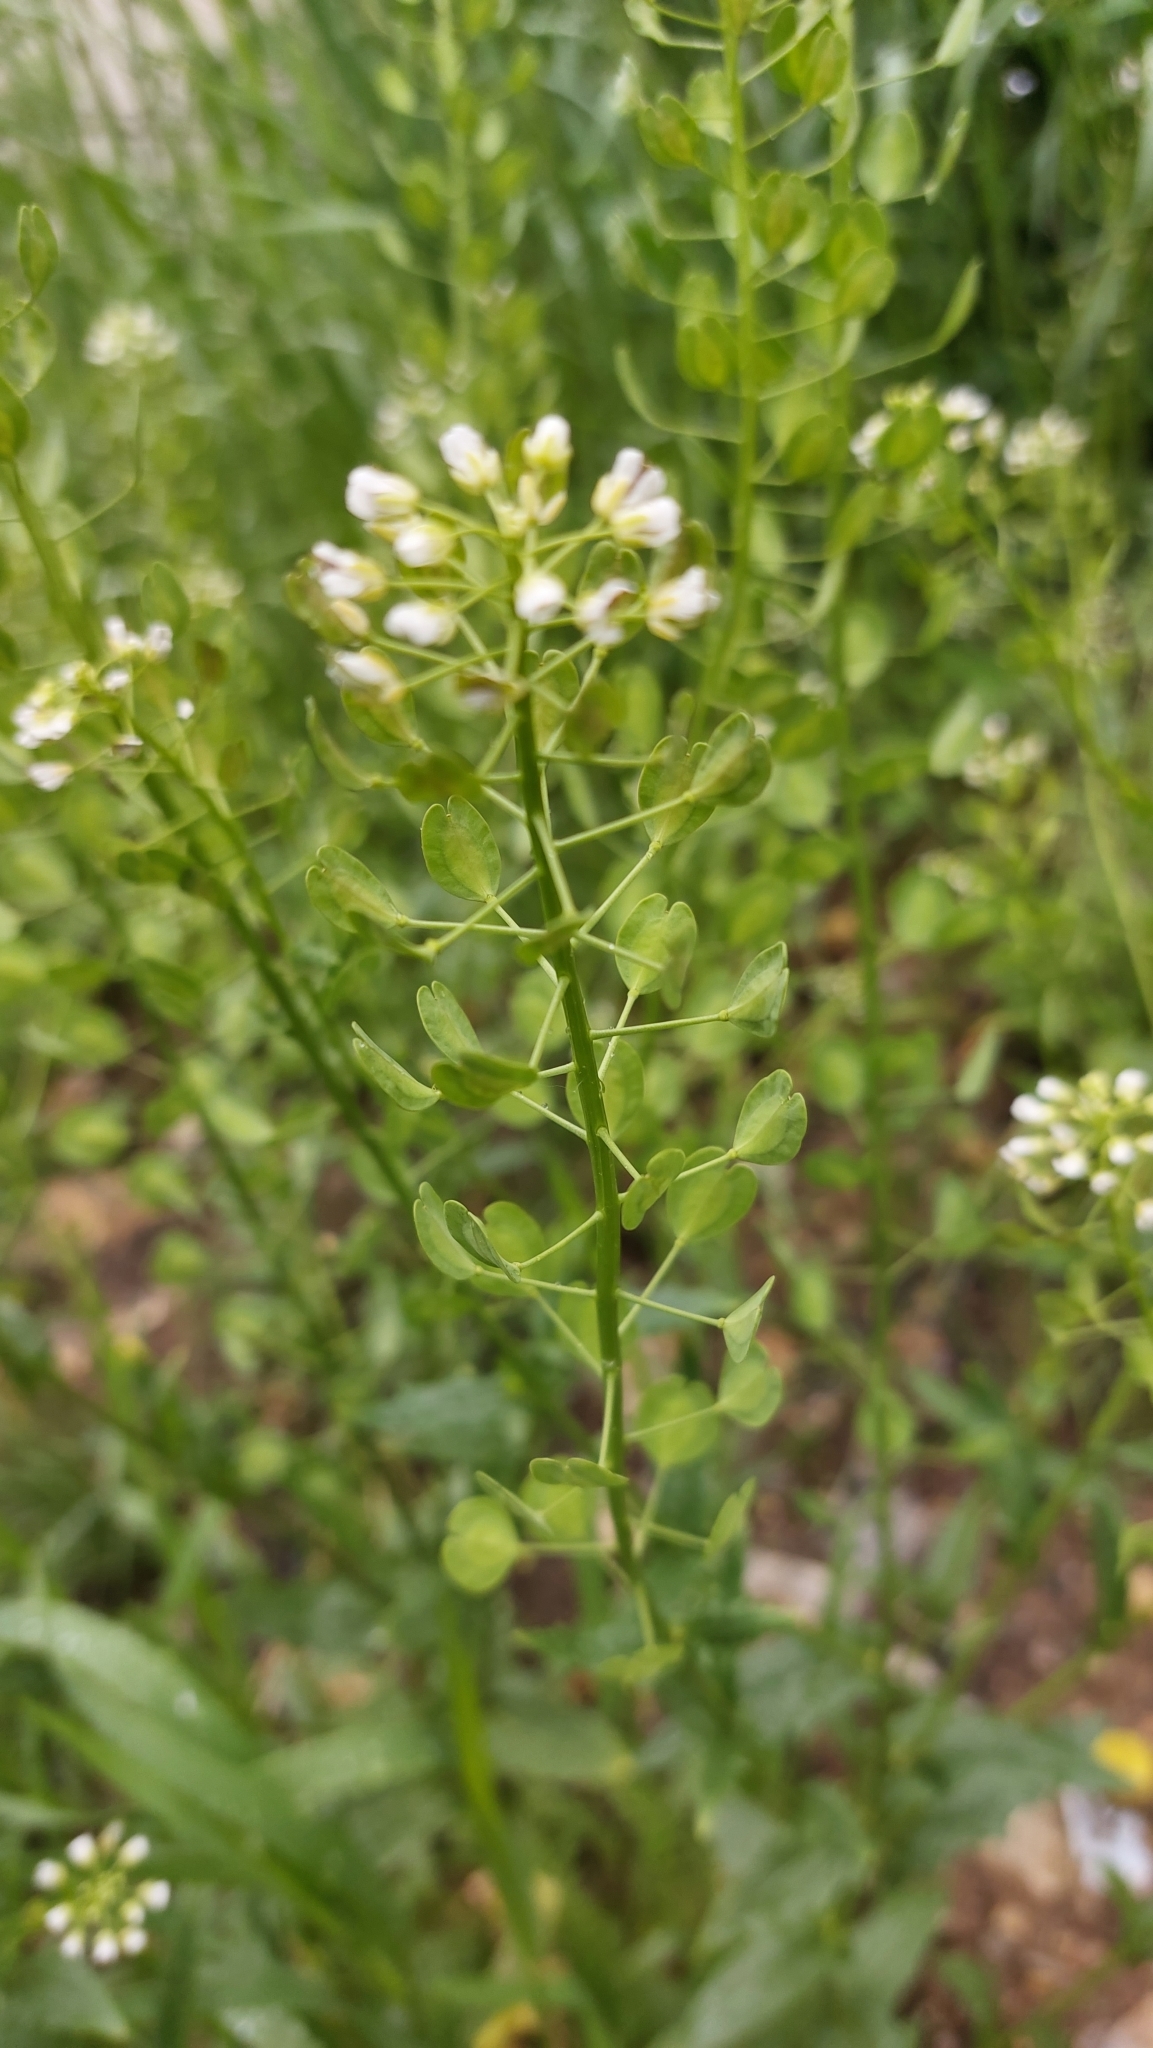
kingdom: Plantae
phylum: Tracheophyta
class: Magnoliopsida
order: Brassicales
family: Brassicaceae
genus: Thlaspi
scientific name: Thlaspi arvense
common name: Field pennycress
